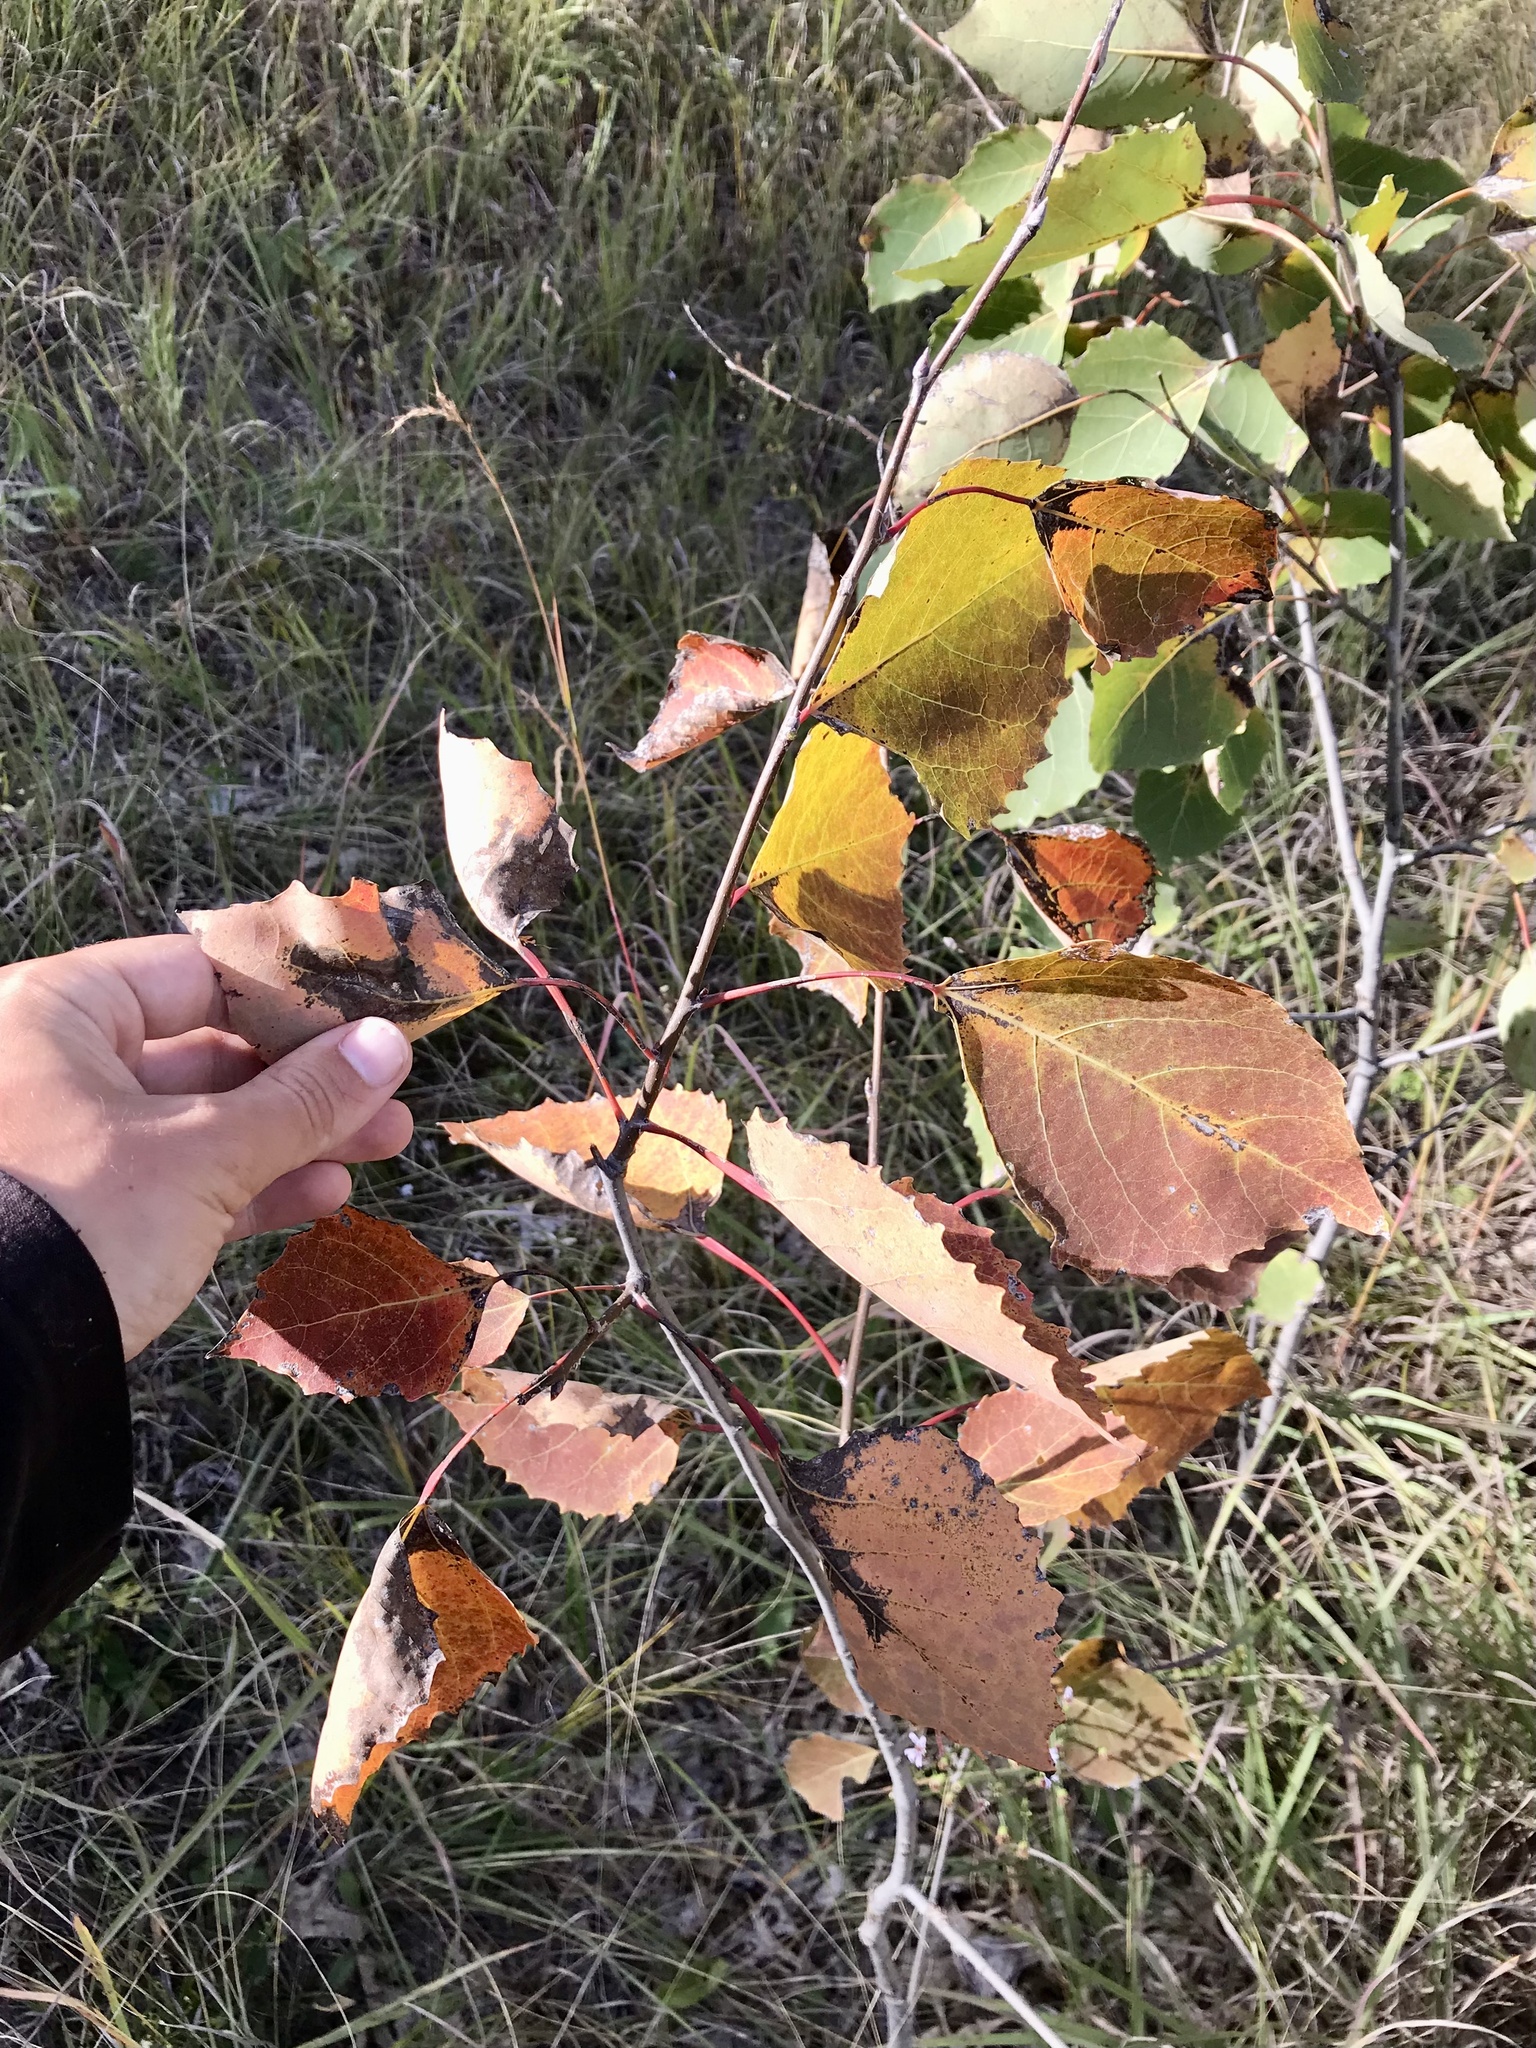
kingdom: Plantae
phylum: Tracheophyta
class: Magnoliopsida
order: Malpighiales
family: Salicaceae
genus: Populus
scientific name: Populus grandidentata
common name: Bigtooth aspen
